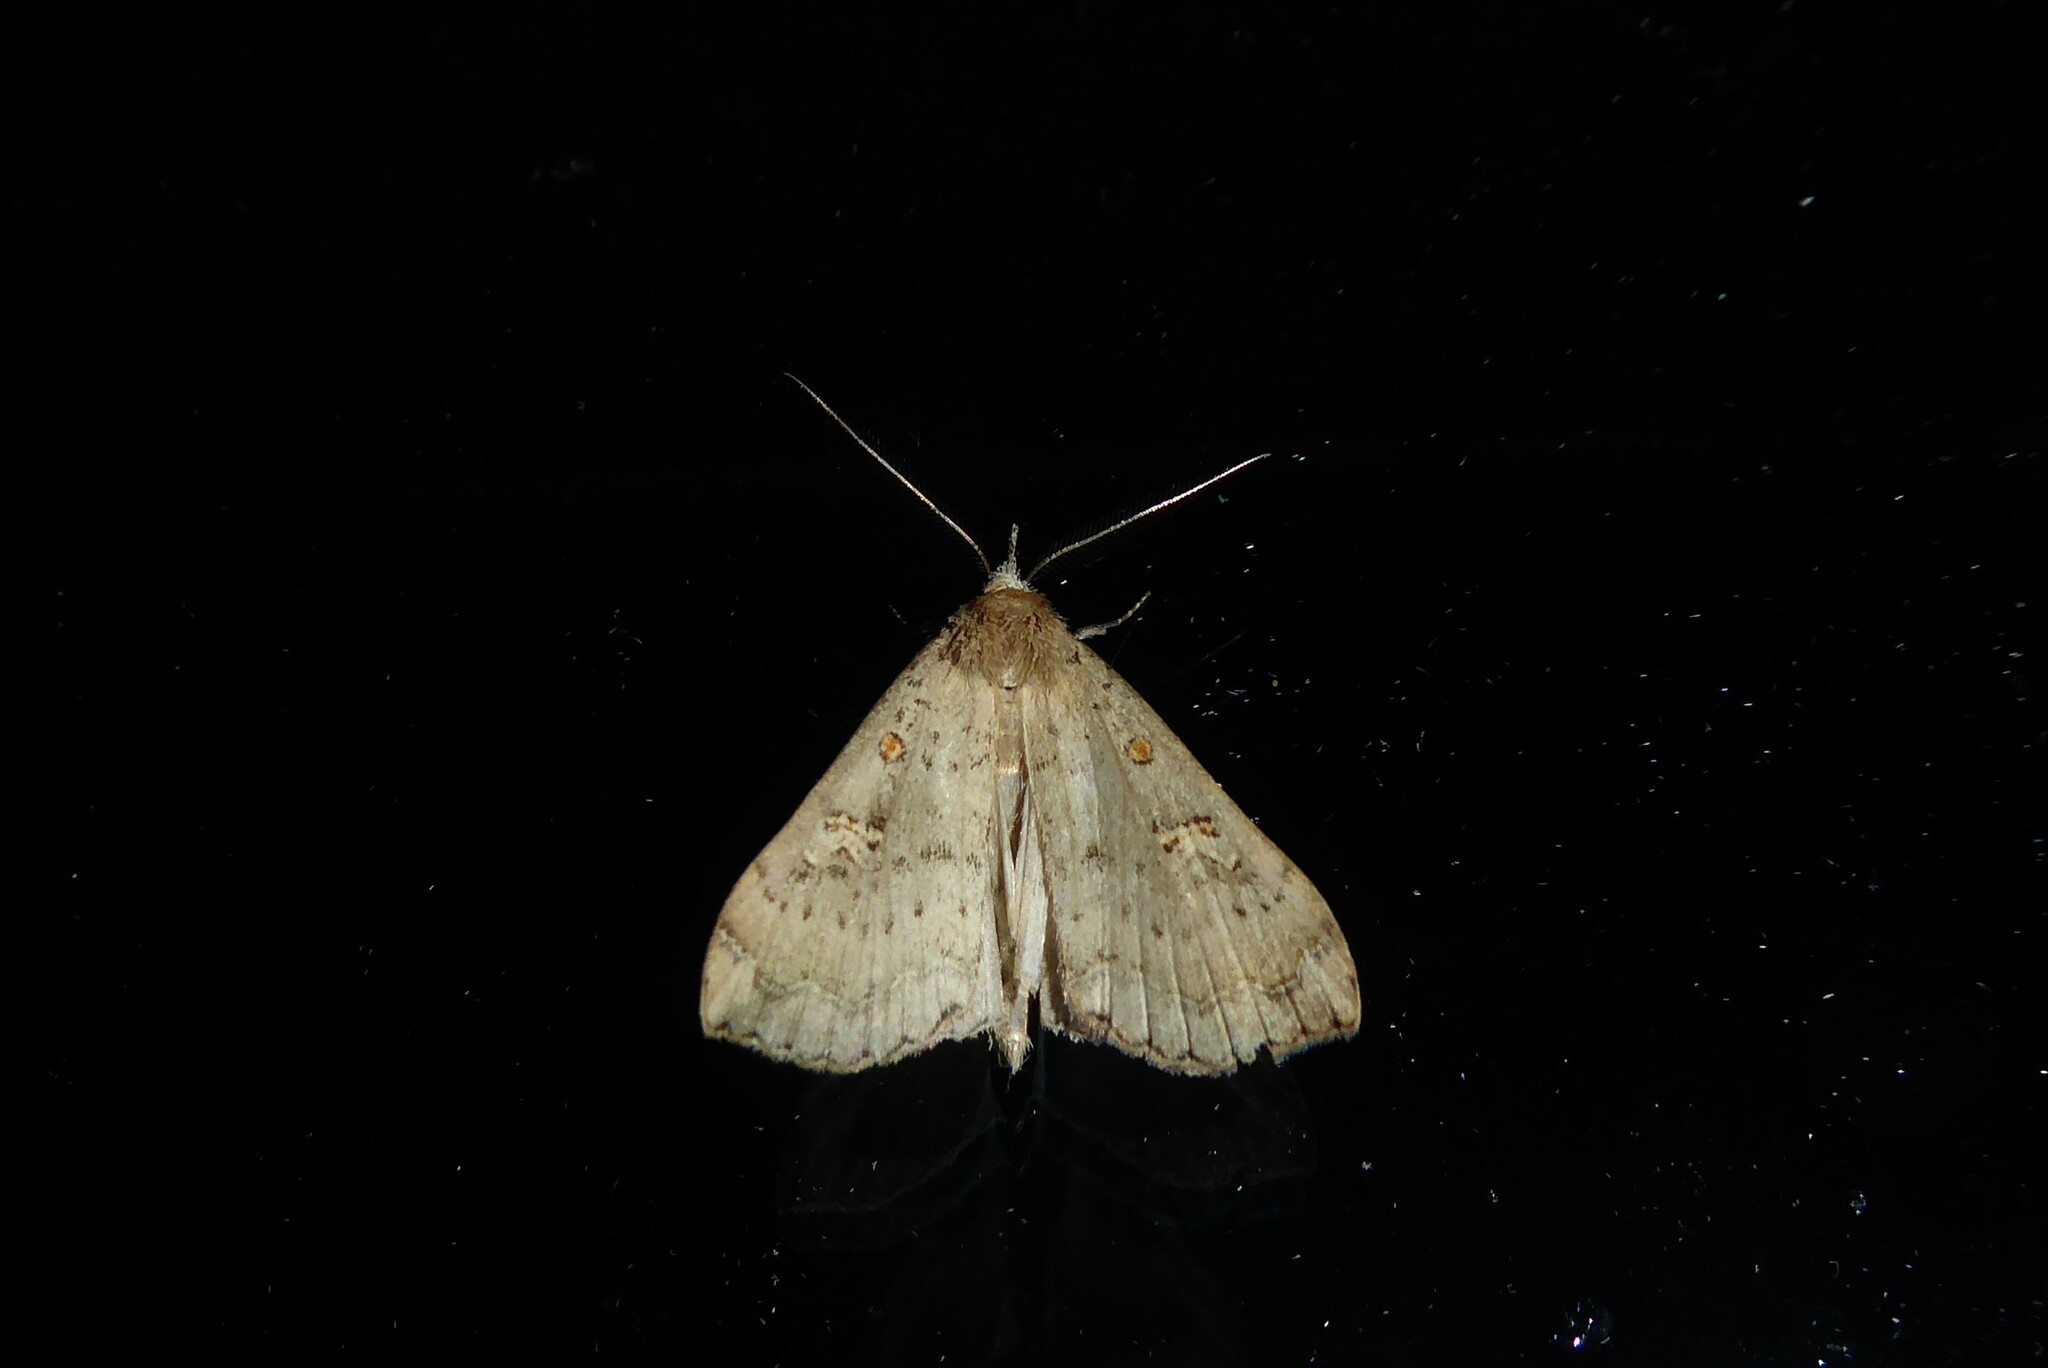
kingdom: Animalia
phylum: Arthropoda
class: Insecta
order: Lepidoptera
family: Erebidae
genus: Rhapsa
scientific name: Rhapsa scotosialis
